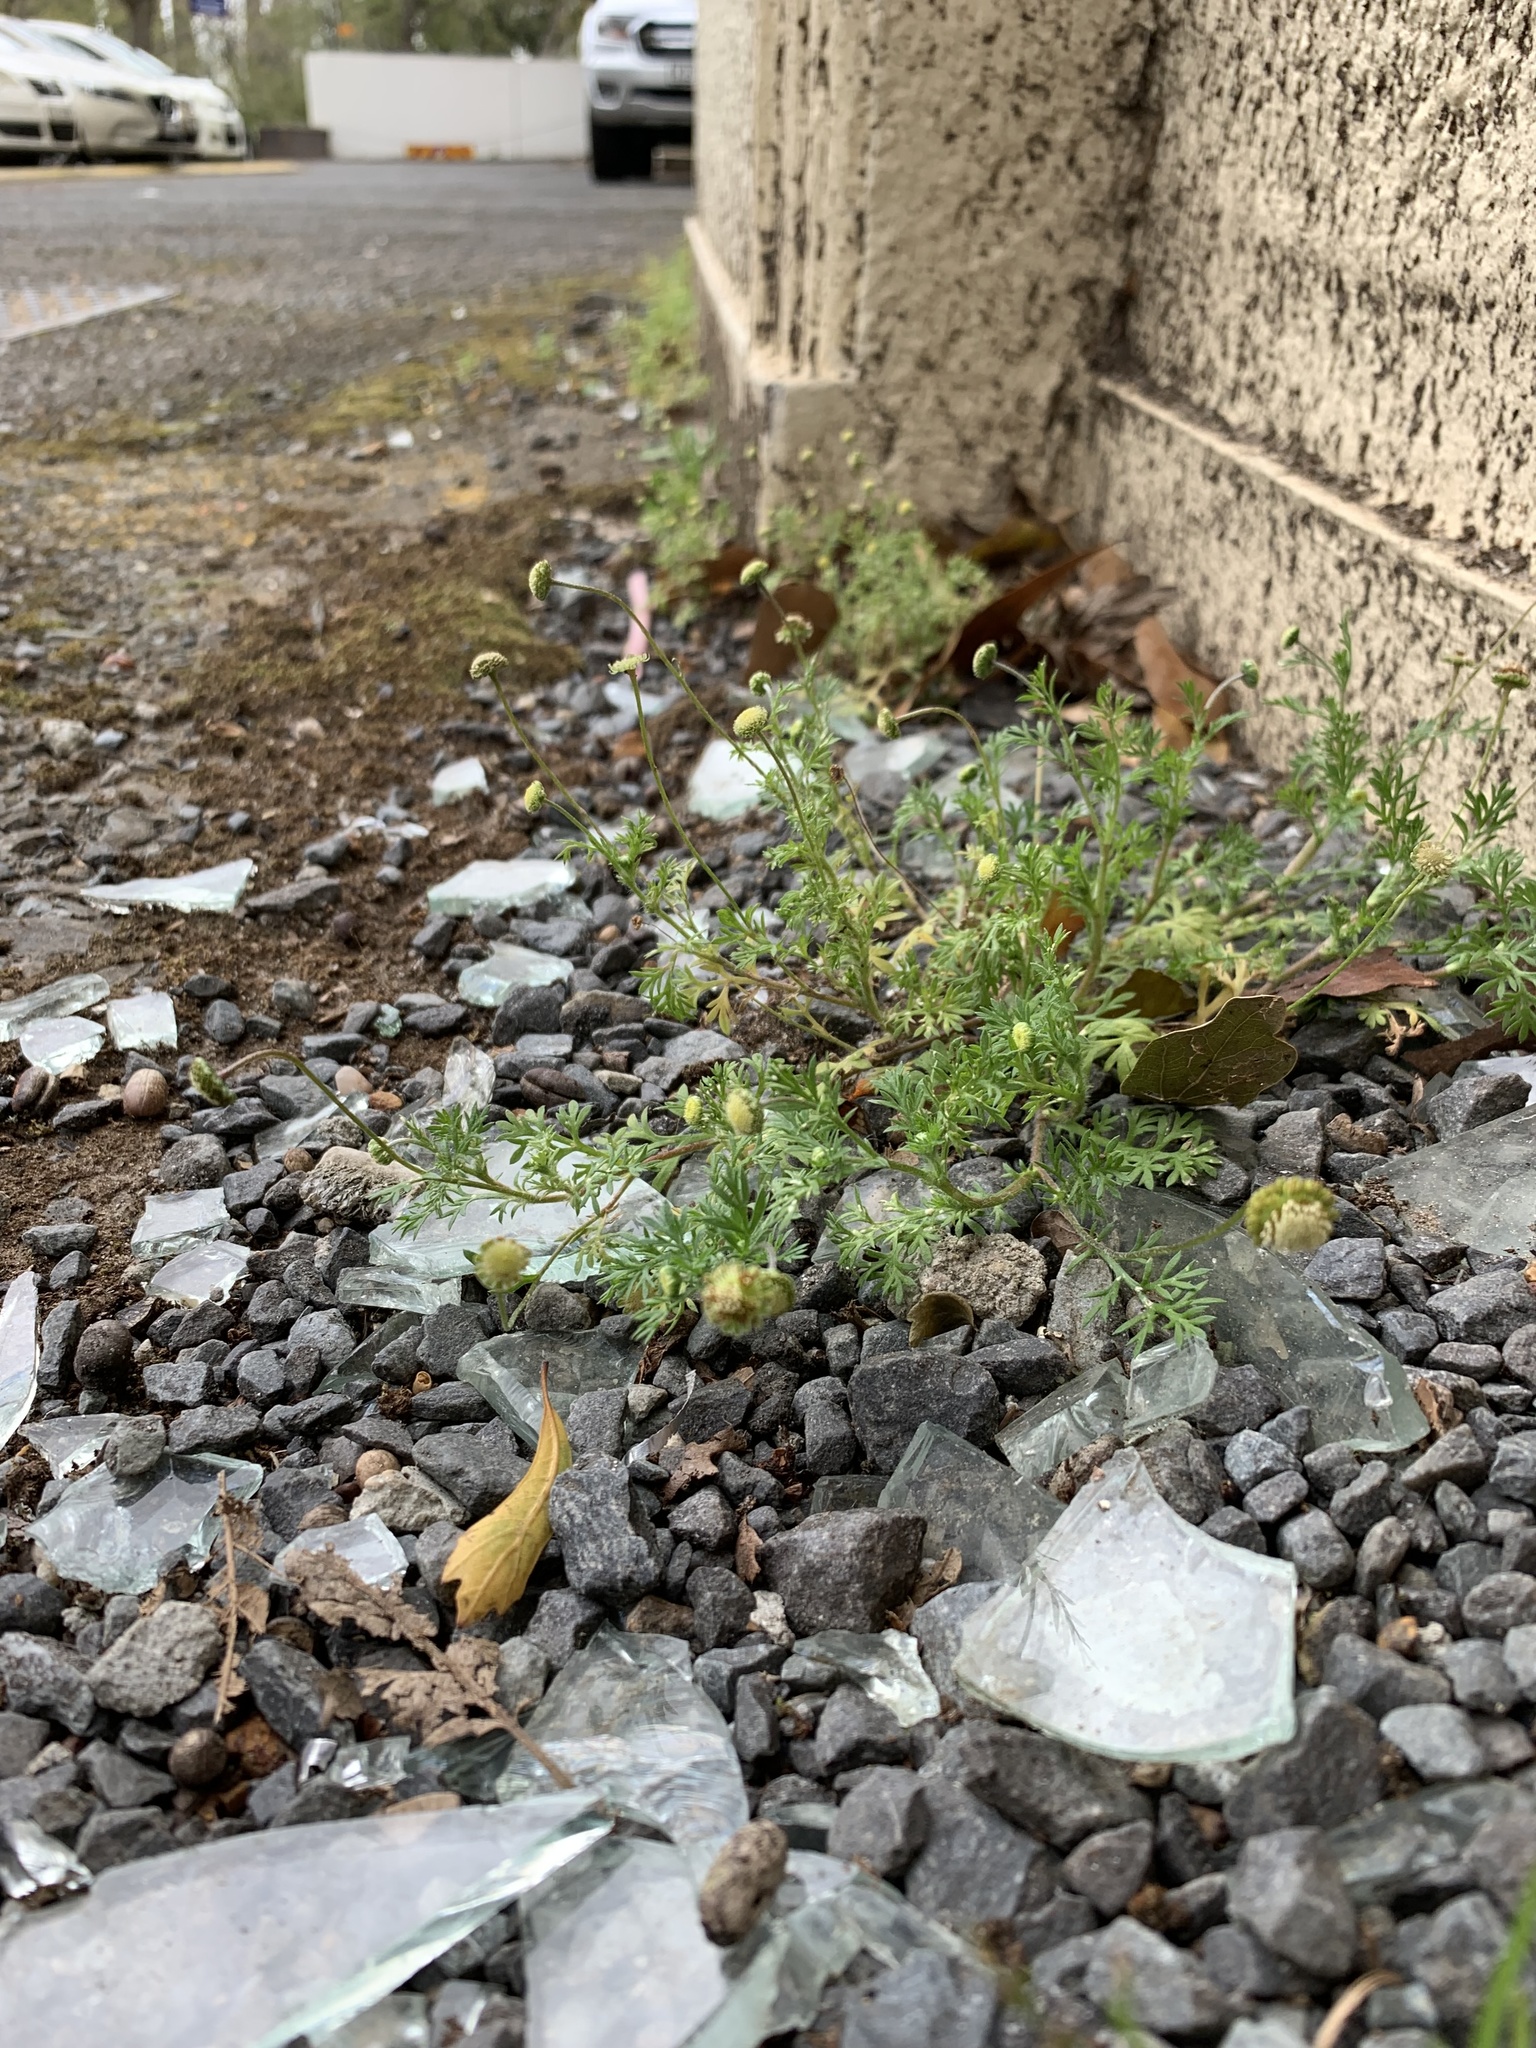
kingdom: Plantae
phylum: Tracheophyta
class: Magnoliopsida
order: Asterales
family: Asteraceae
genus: Cotula
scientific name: Cotula australis
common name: Australian waterbuttons
